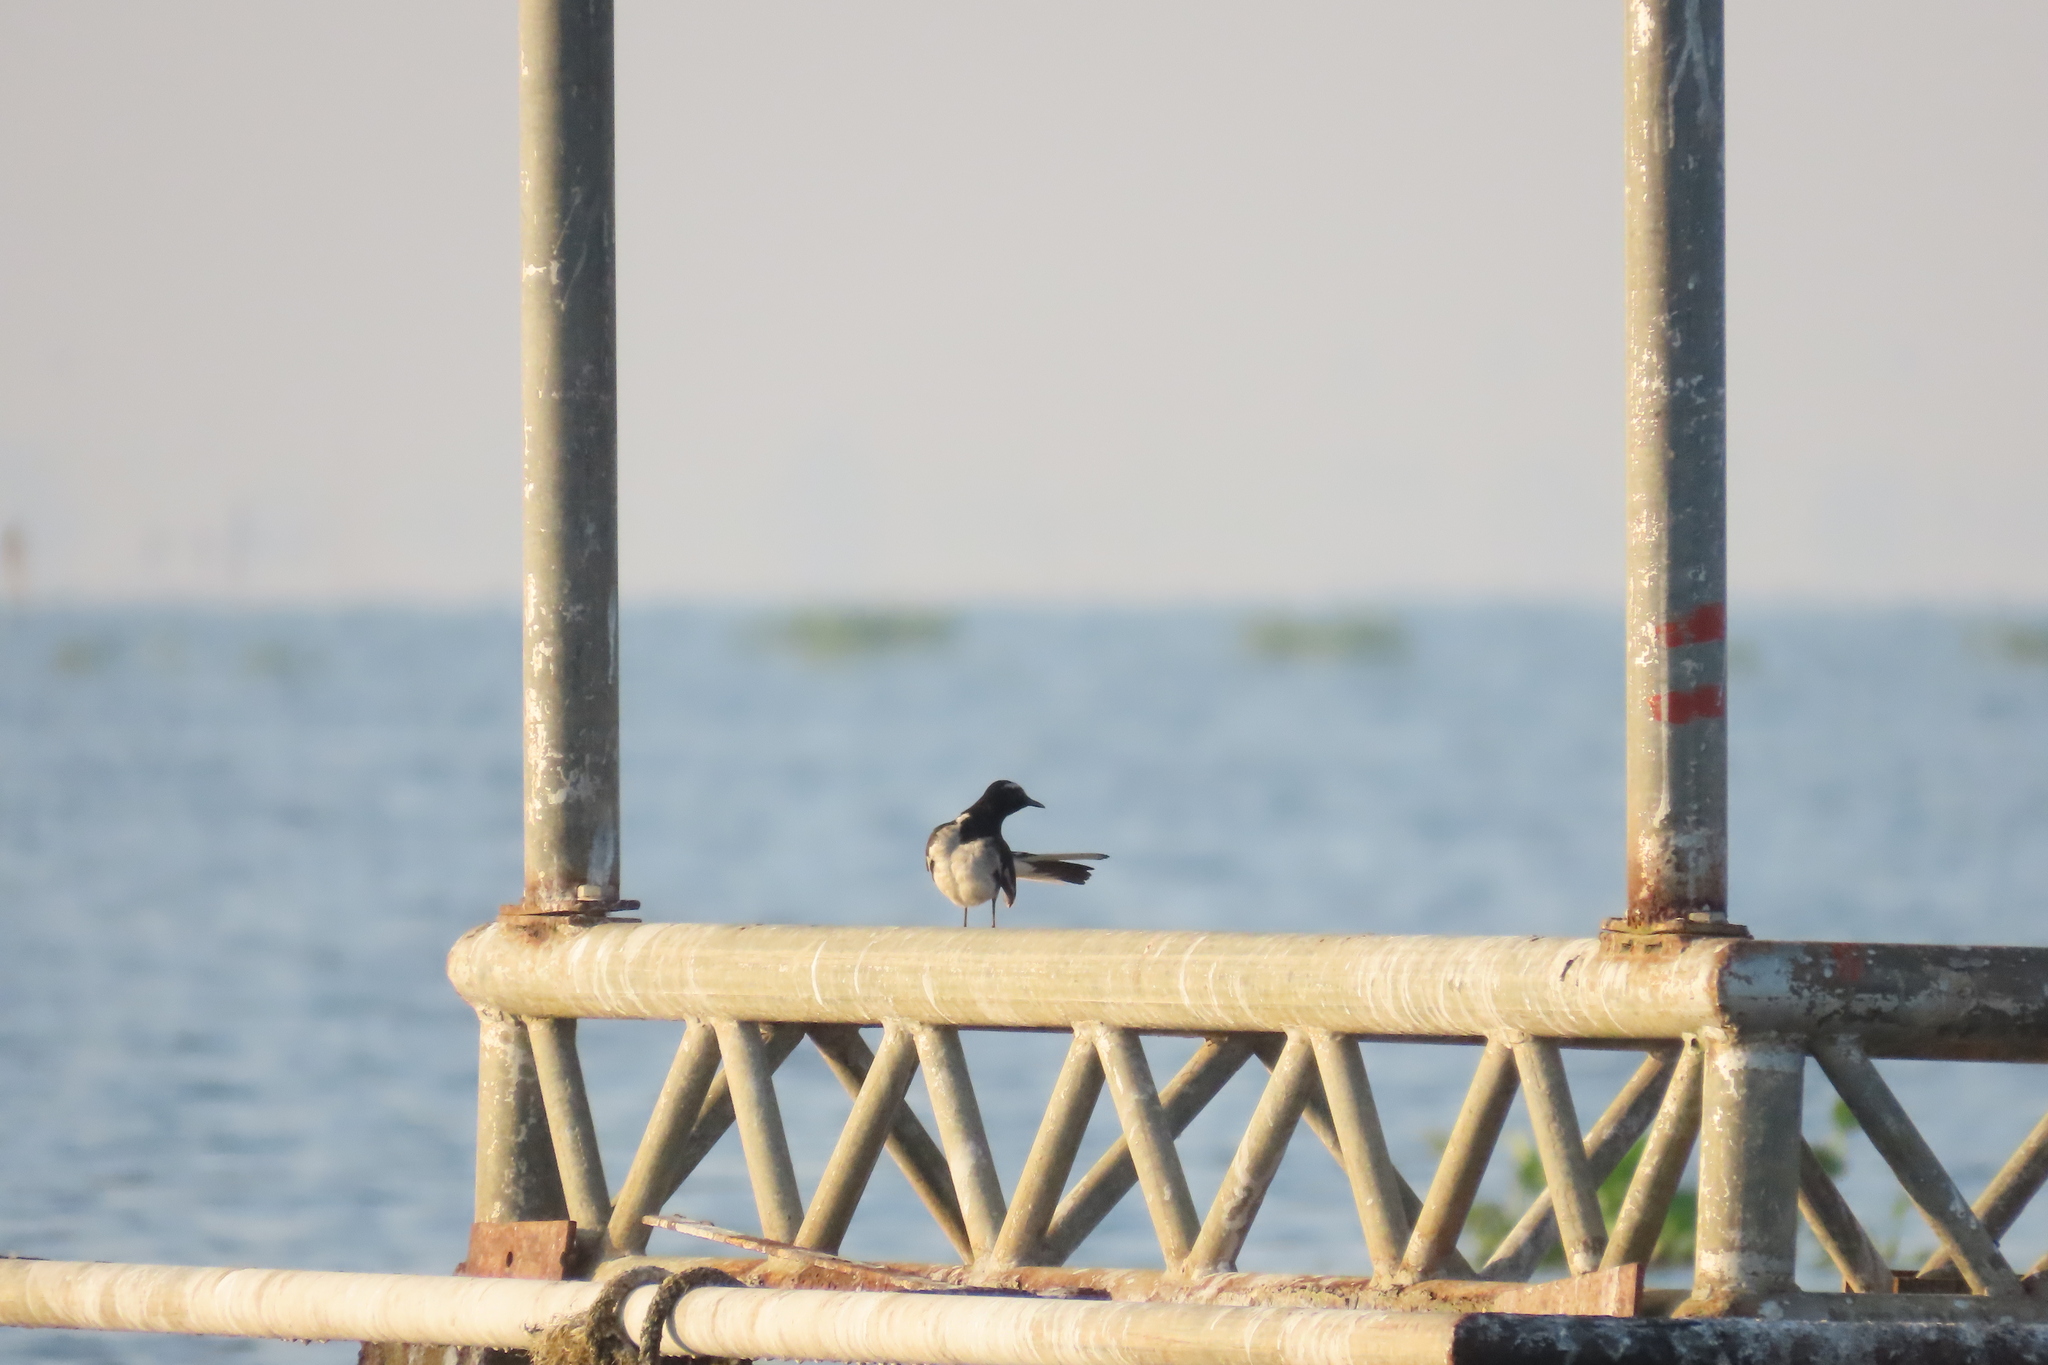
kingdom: Animalia
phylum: Chordata
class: Aves
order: Passeriformes
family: Motacillidae
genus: Motacilla
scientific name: Motacilla maderaspatensis
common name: White-browed wagtail
